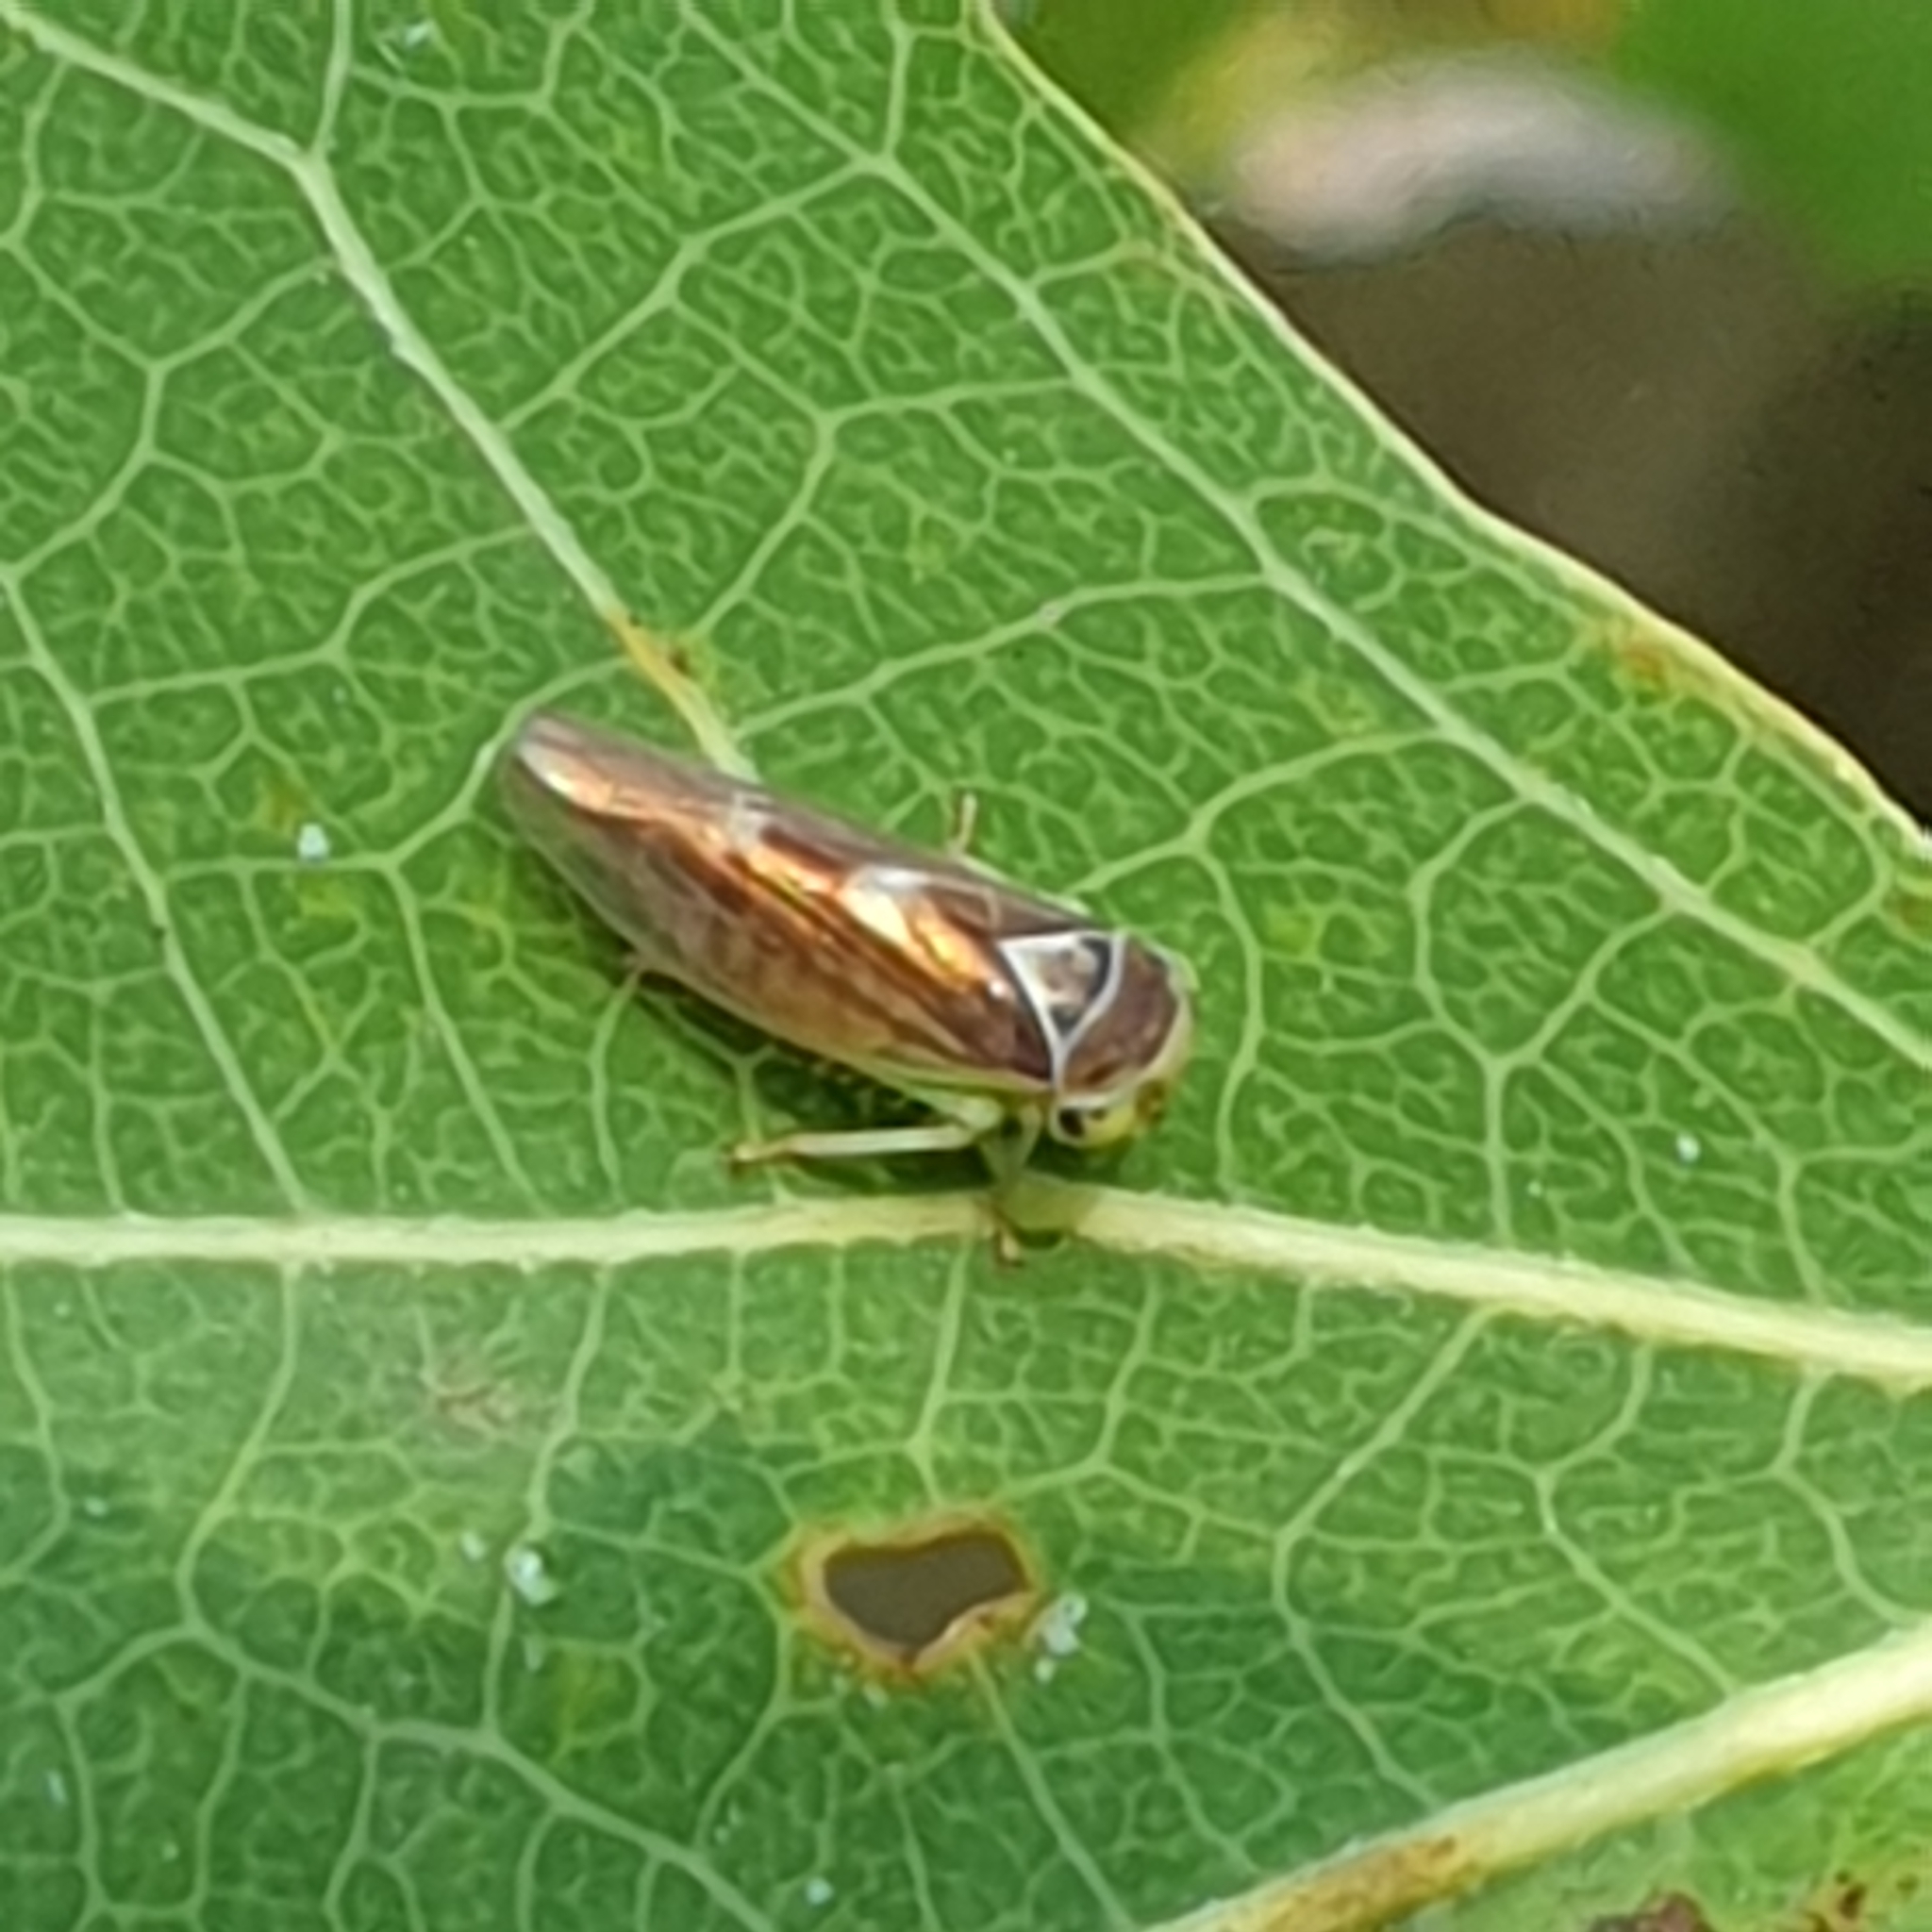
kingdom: Animalia
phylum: Arthropoda
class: Insecta
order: Hemiptera
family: Cicadellidae
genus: Populicerus
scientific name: Populicerus populi
